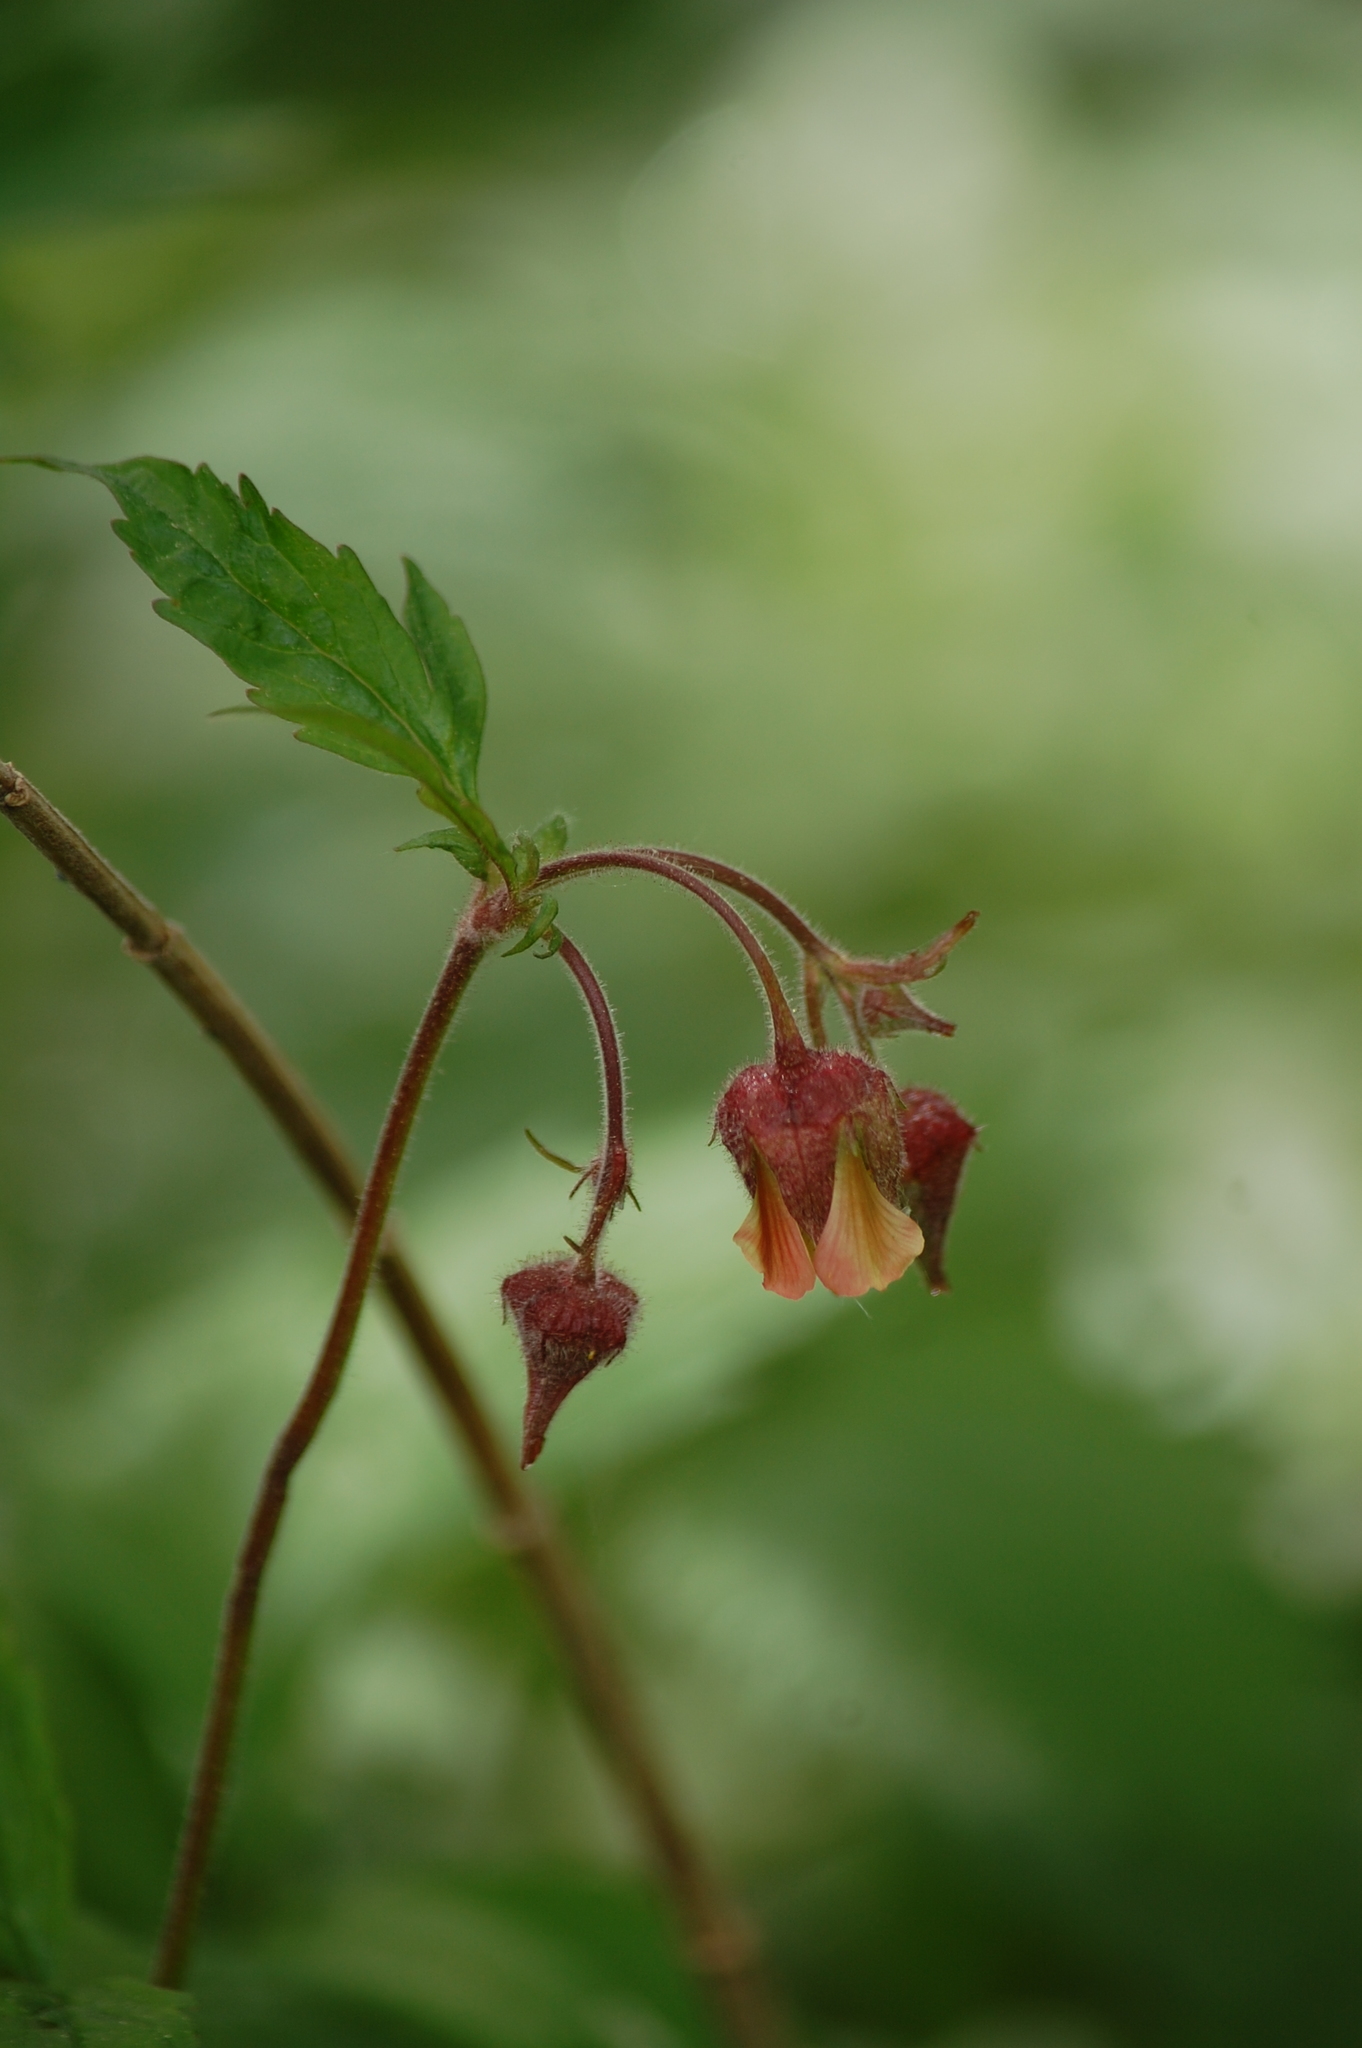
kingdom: Plantae
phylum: Tracheophyta
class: Magnoliopsida
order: Rosales
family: Rosaceae
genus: Geum
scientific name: Geum rivale
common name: Water avens
